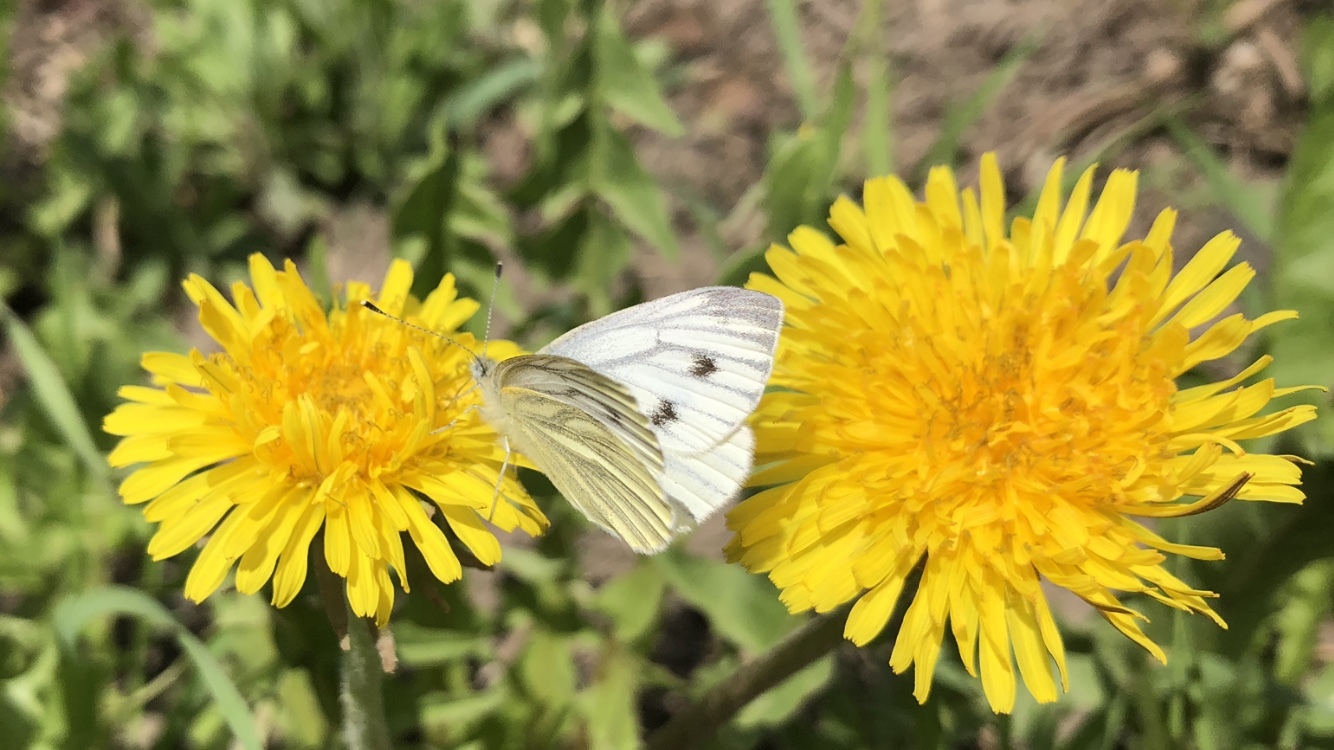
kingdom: Animalia
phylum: Arthropoda
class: Insecta
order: Lepidoptera
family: Pieridae
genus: Pieris
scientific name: Pieris napi
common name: Green-veined white
